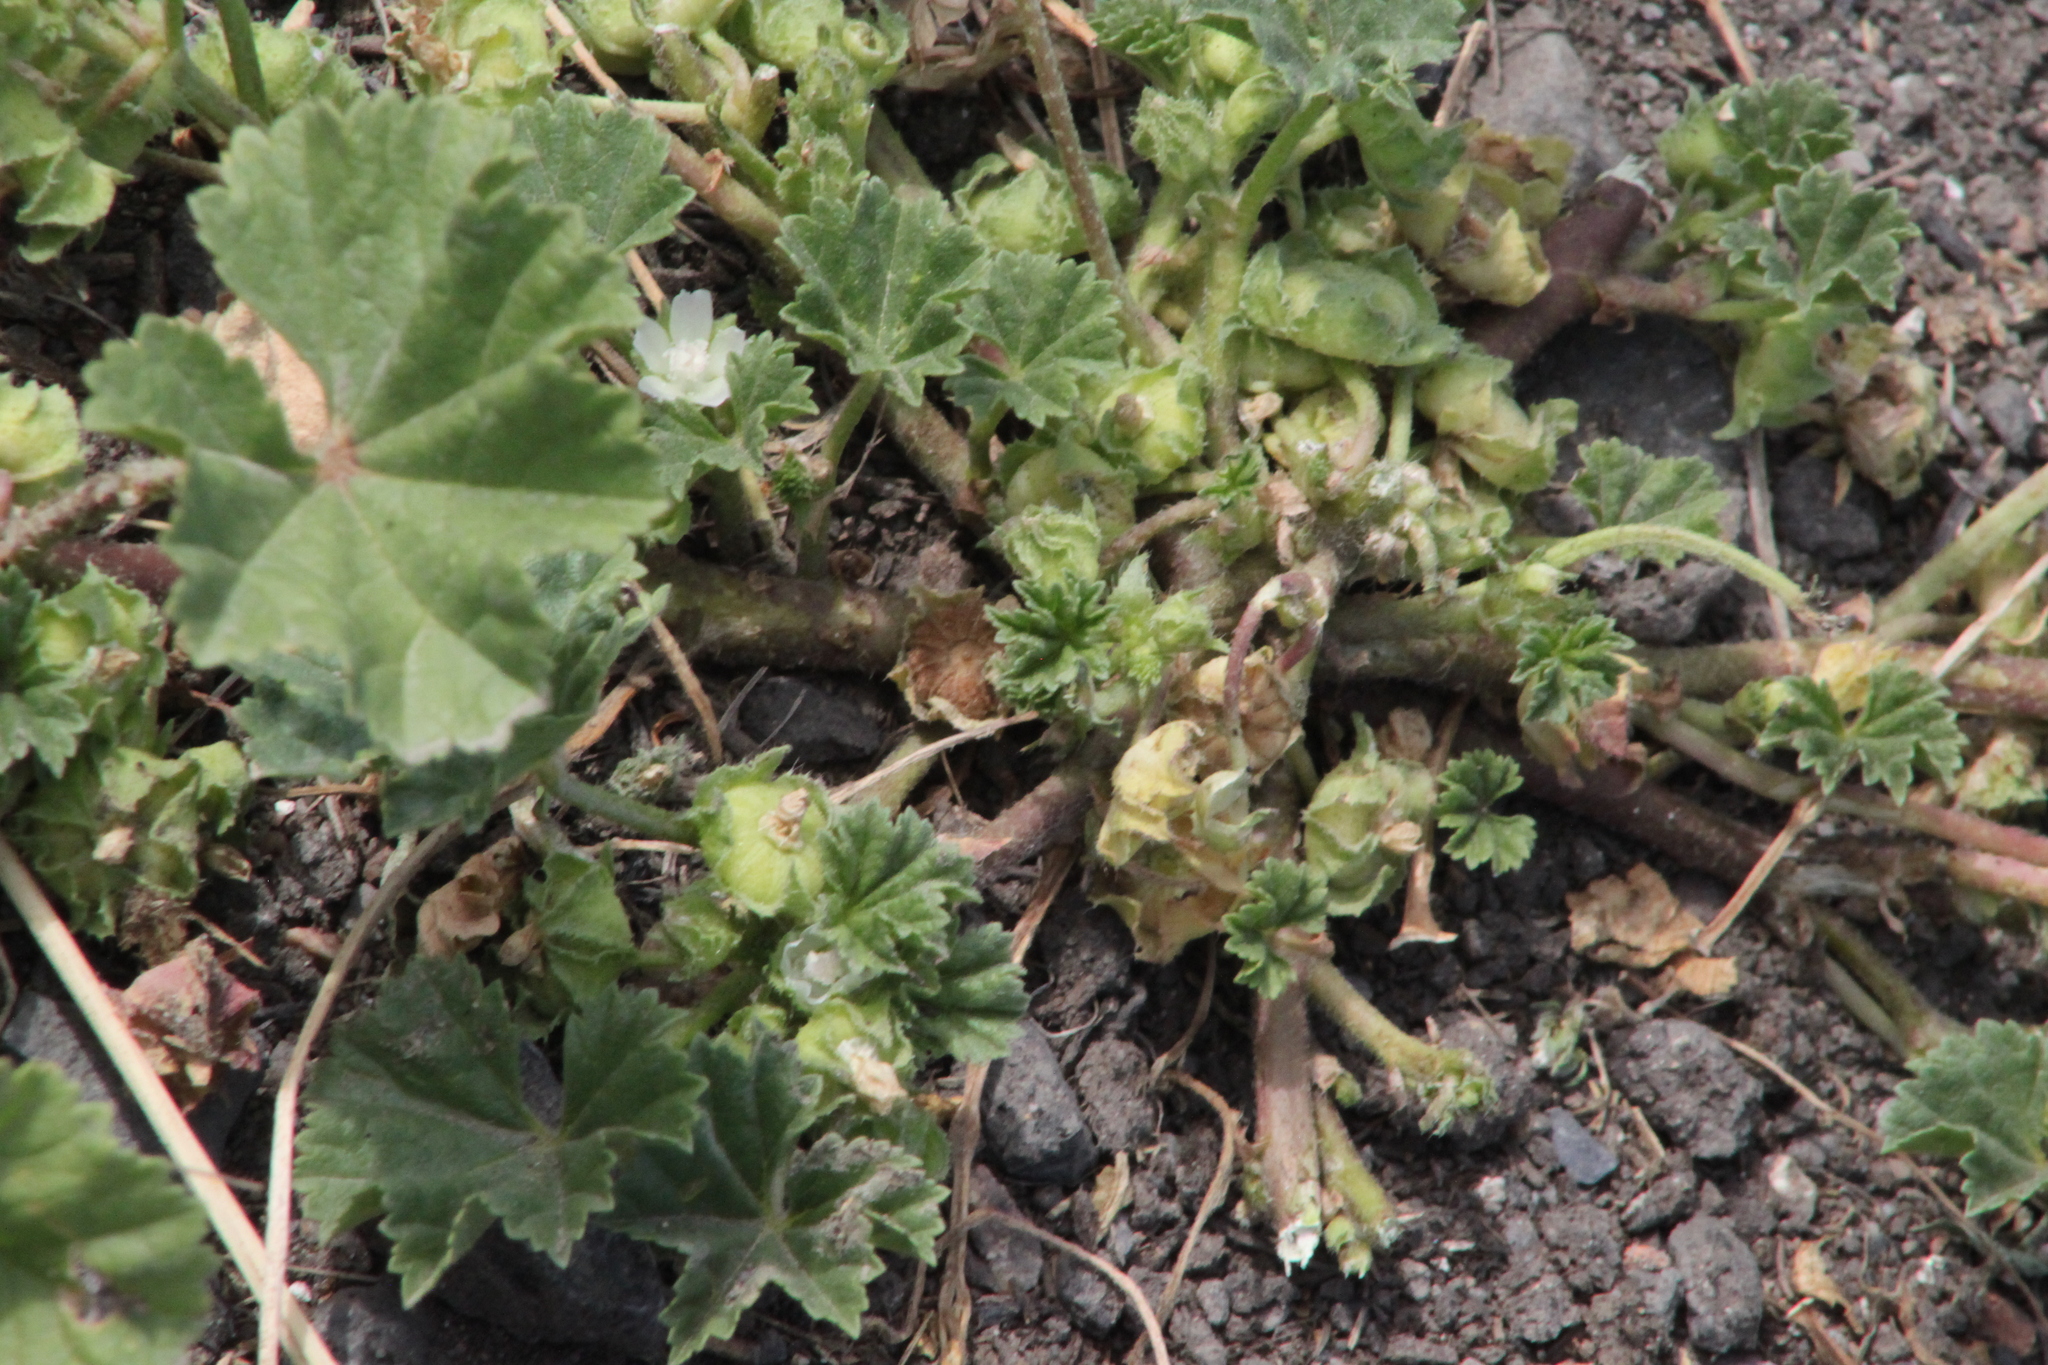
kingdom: Plantae
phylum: Tracheophyta
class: Magnoliopsida
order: Malvales
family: Malvaceae
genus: Malva
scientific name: Malva neglecta
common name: Common mallow
